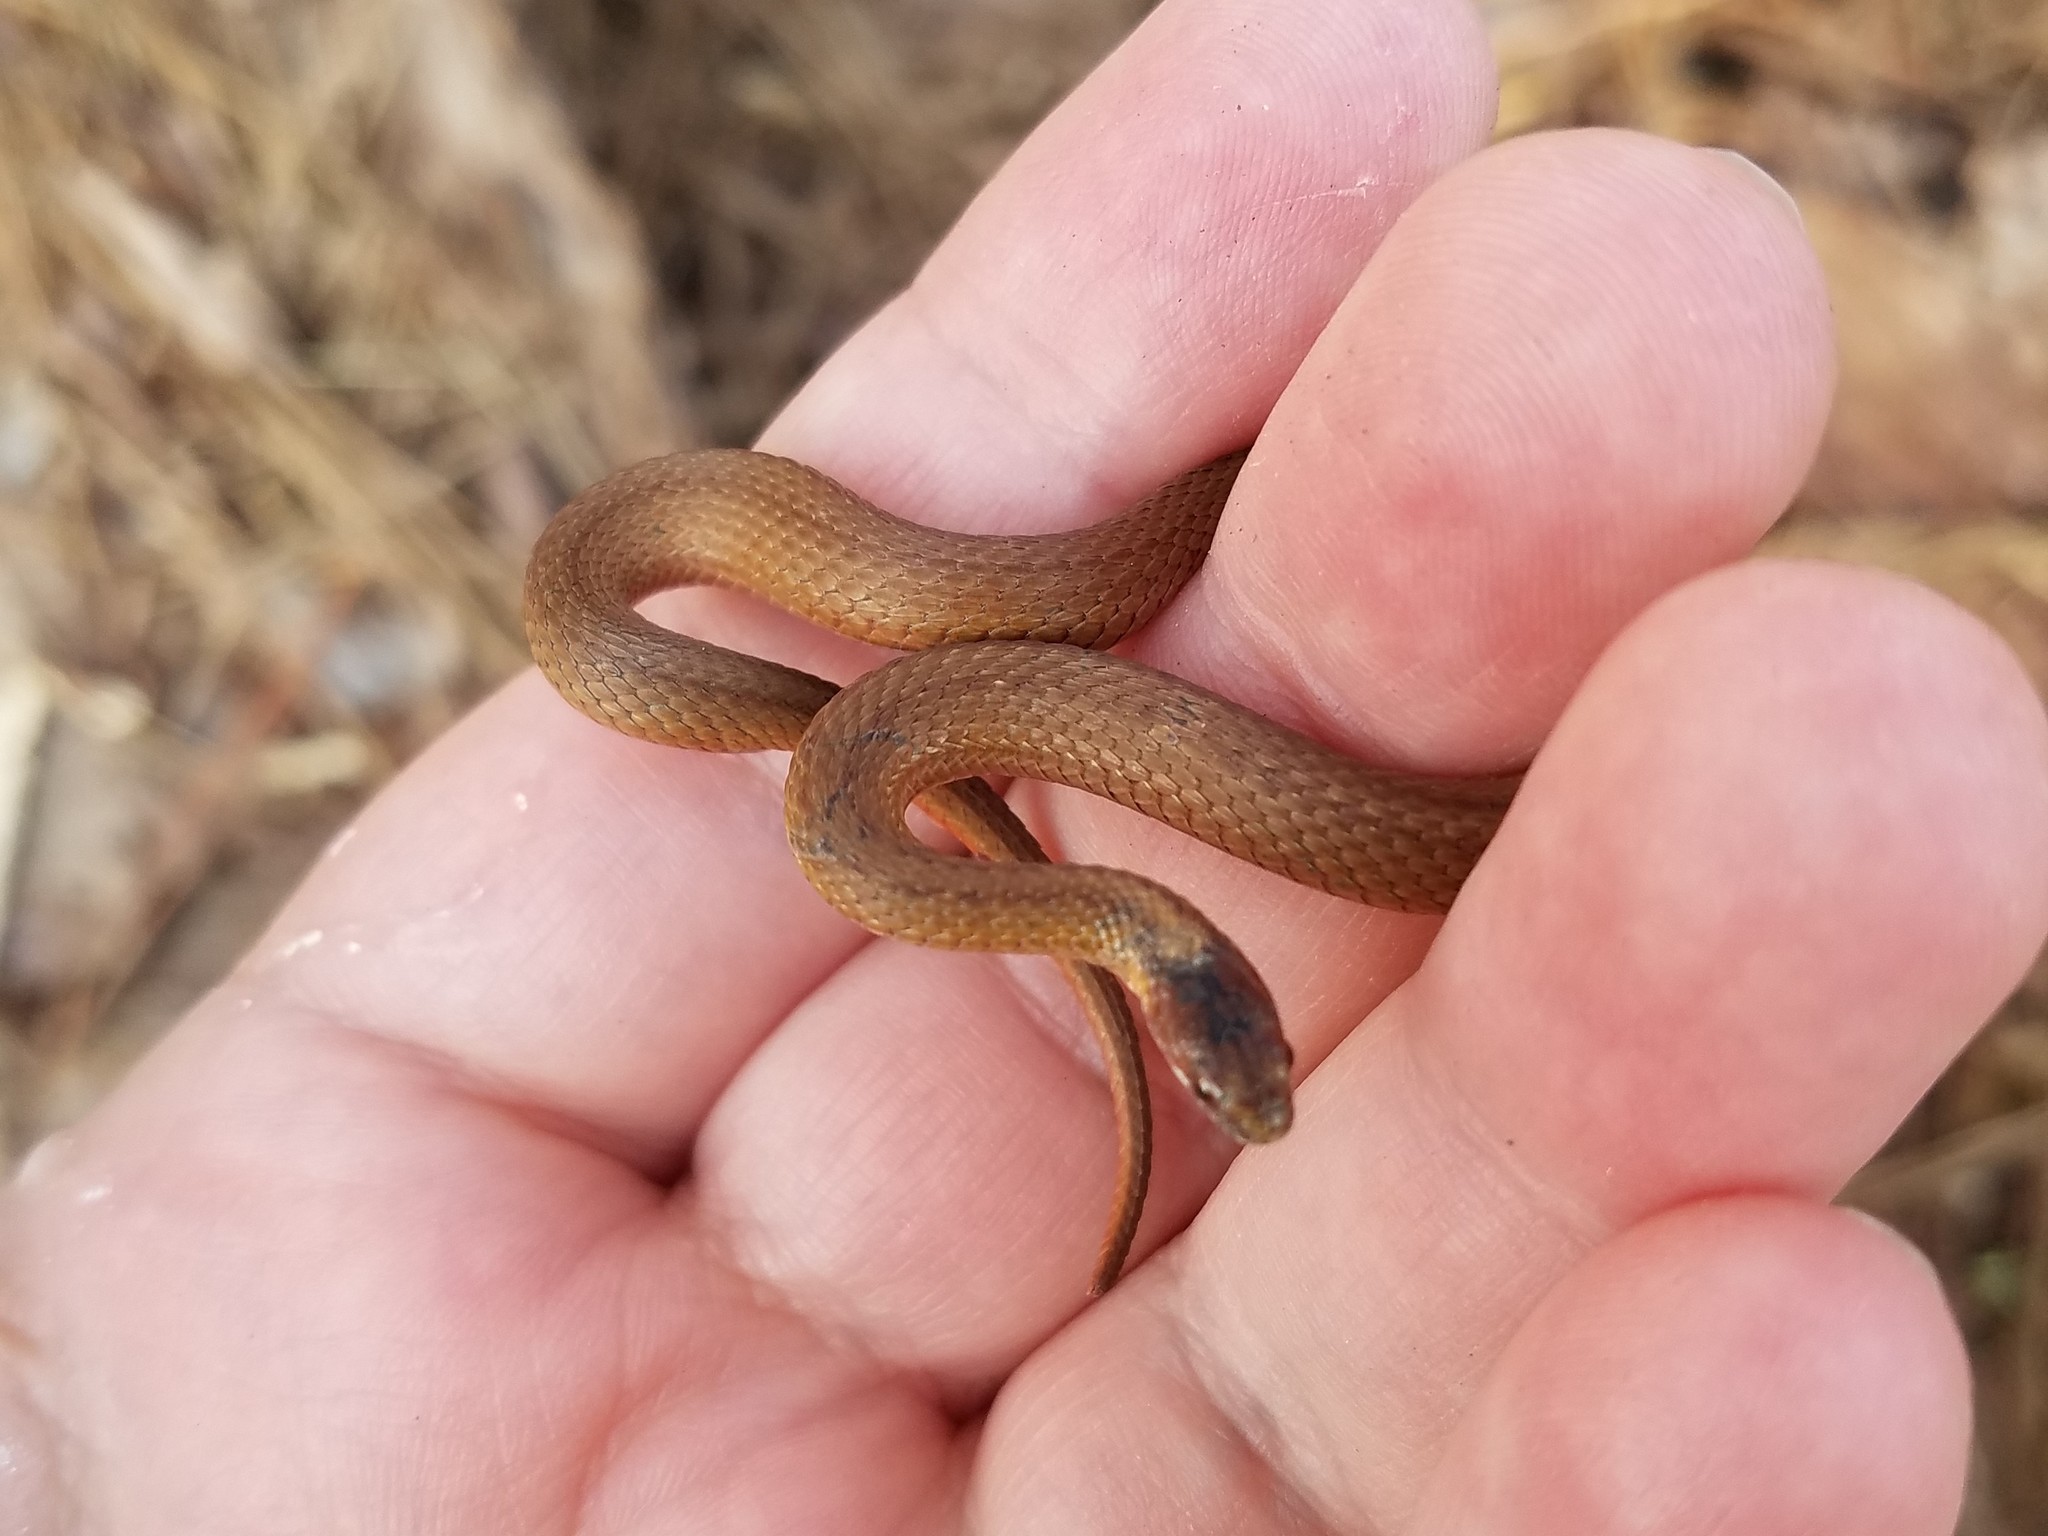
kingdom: Animalia
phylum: Chordata
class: Squamata
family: Colubridae
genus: Storeria
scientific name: Storeria occipitomaculata
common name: Redbelly snake
